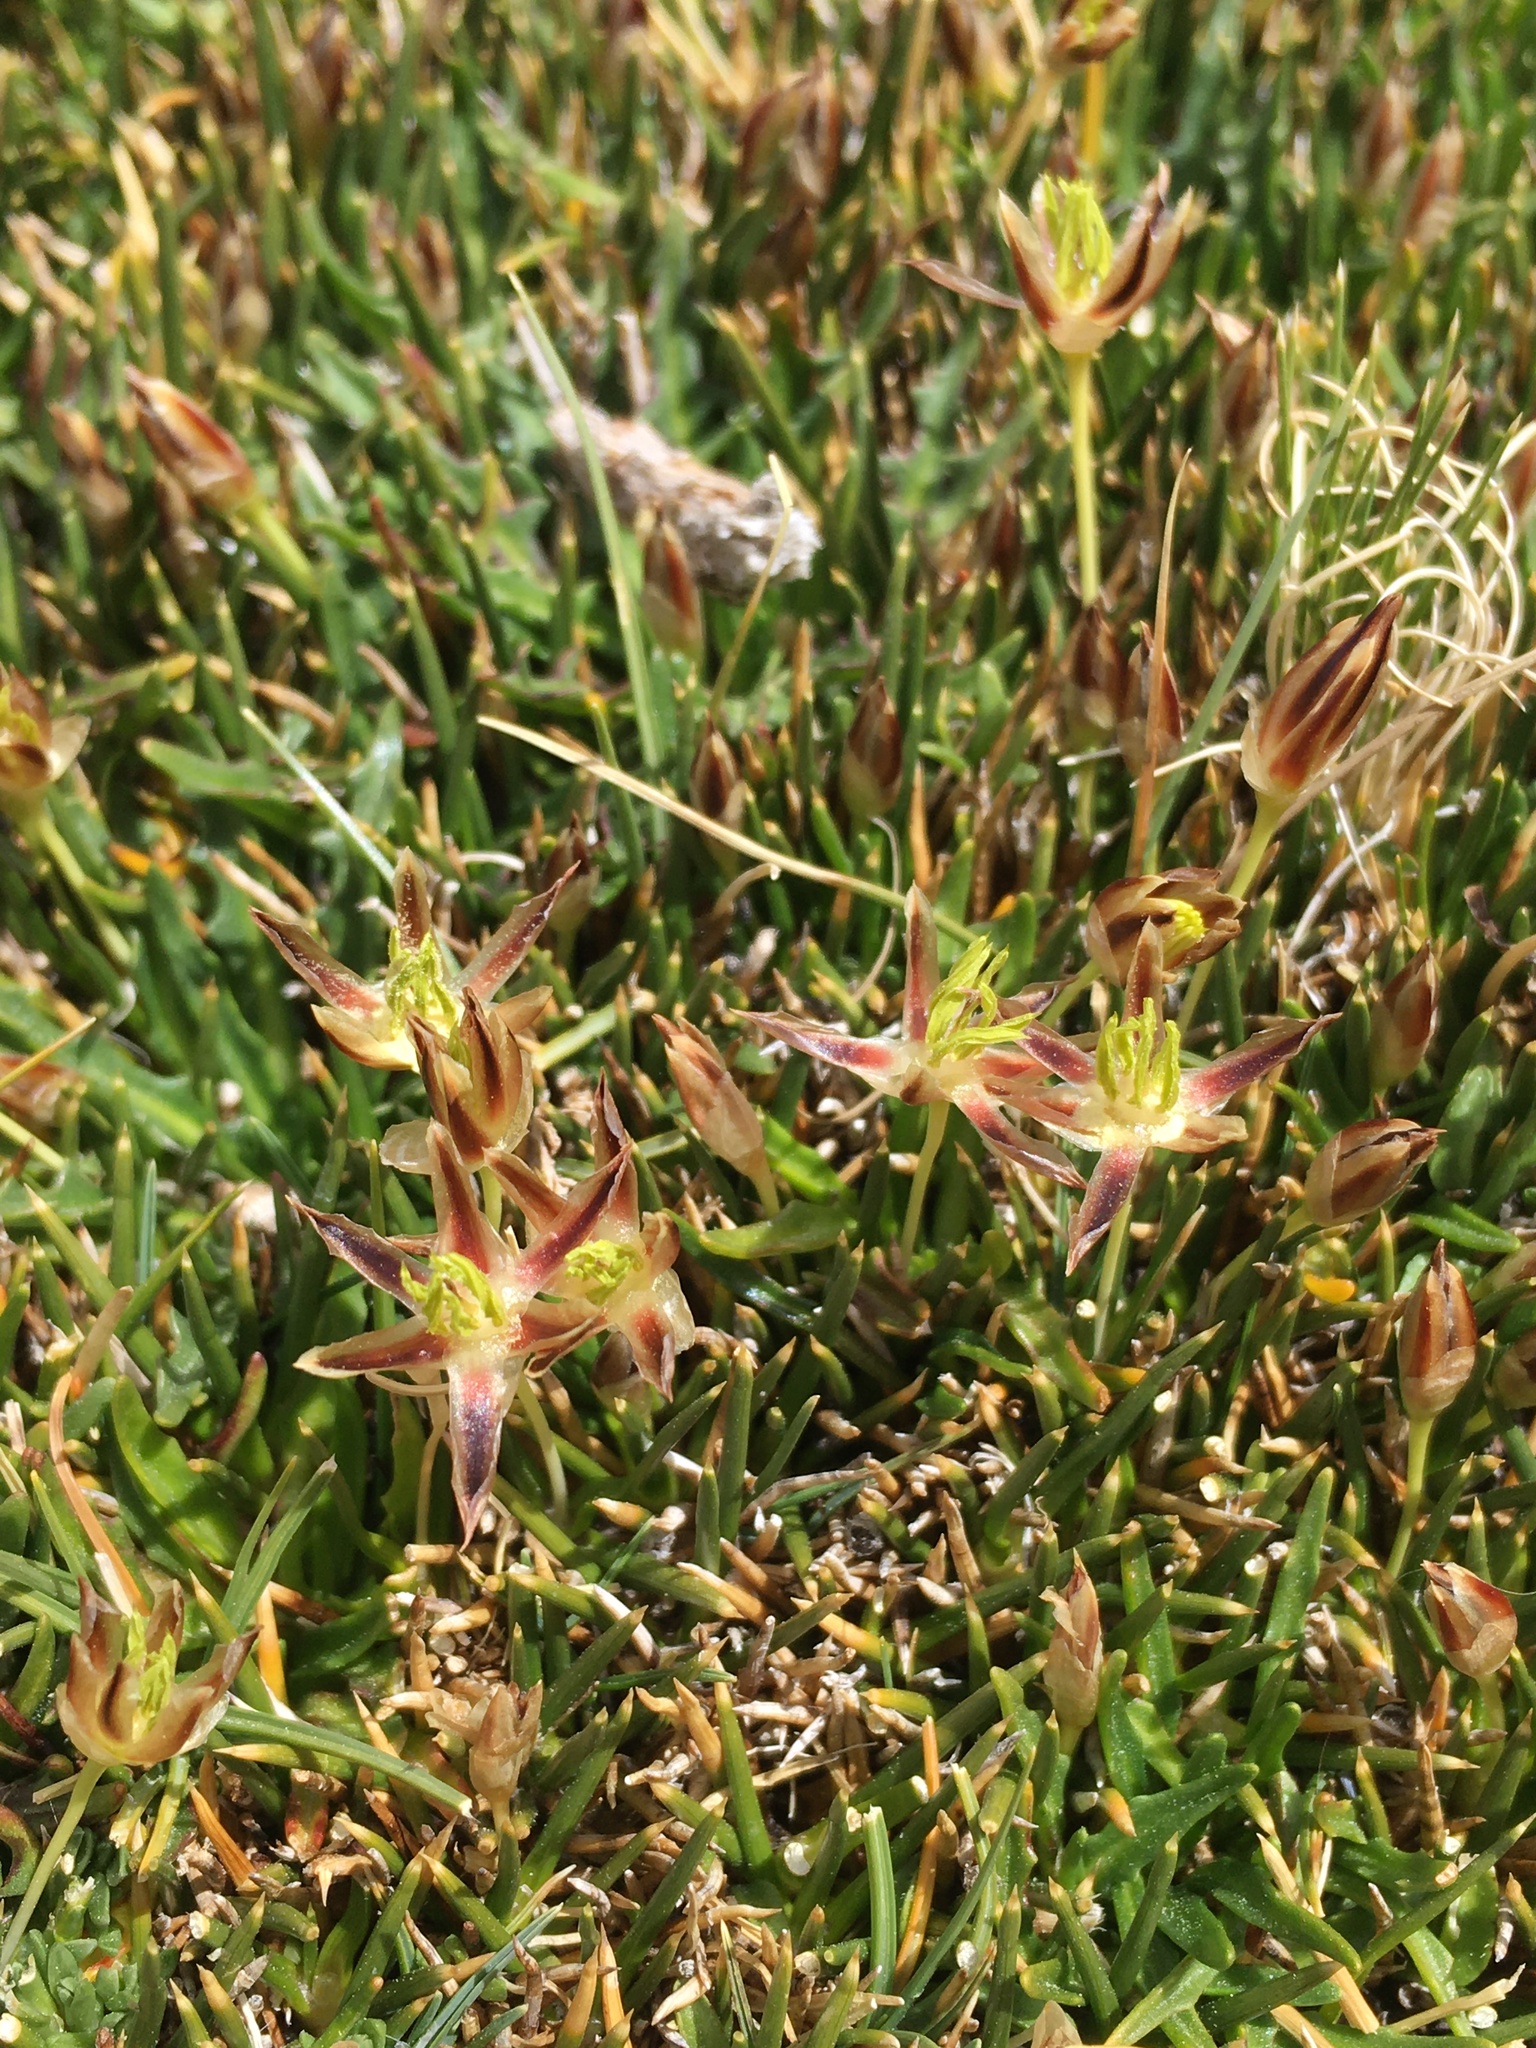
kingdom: Plantae
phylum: Tracheophyta
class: Liliopsida
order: Poales
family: Juncaceae
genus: Patosia
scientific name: Patosia clandestina
